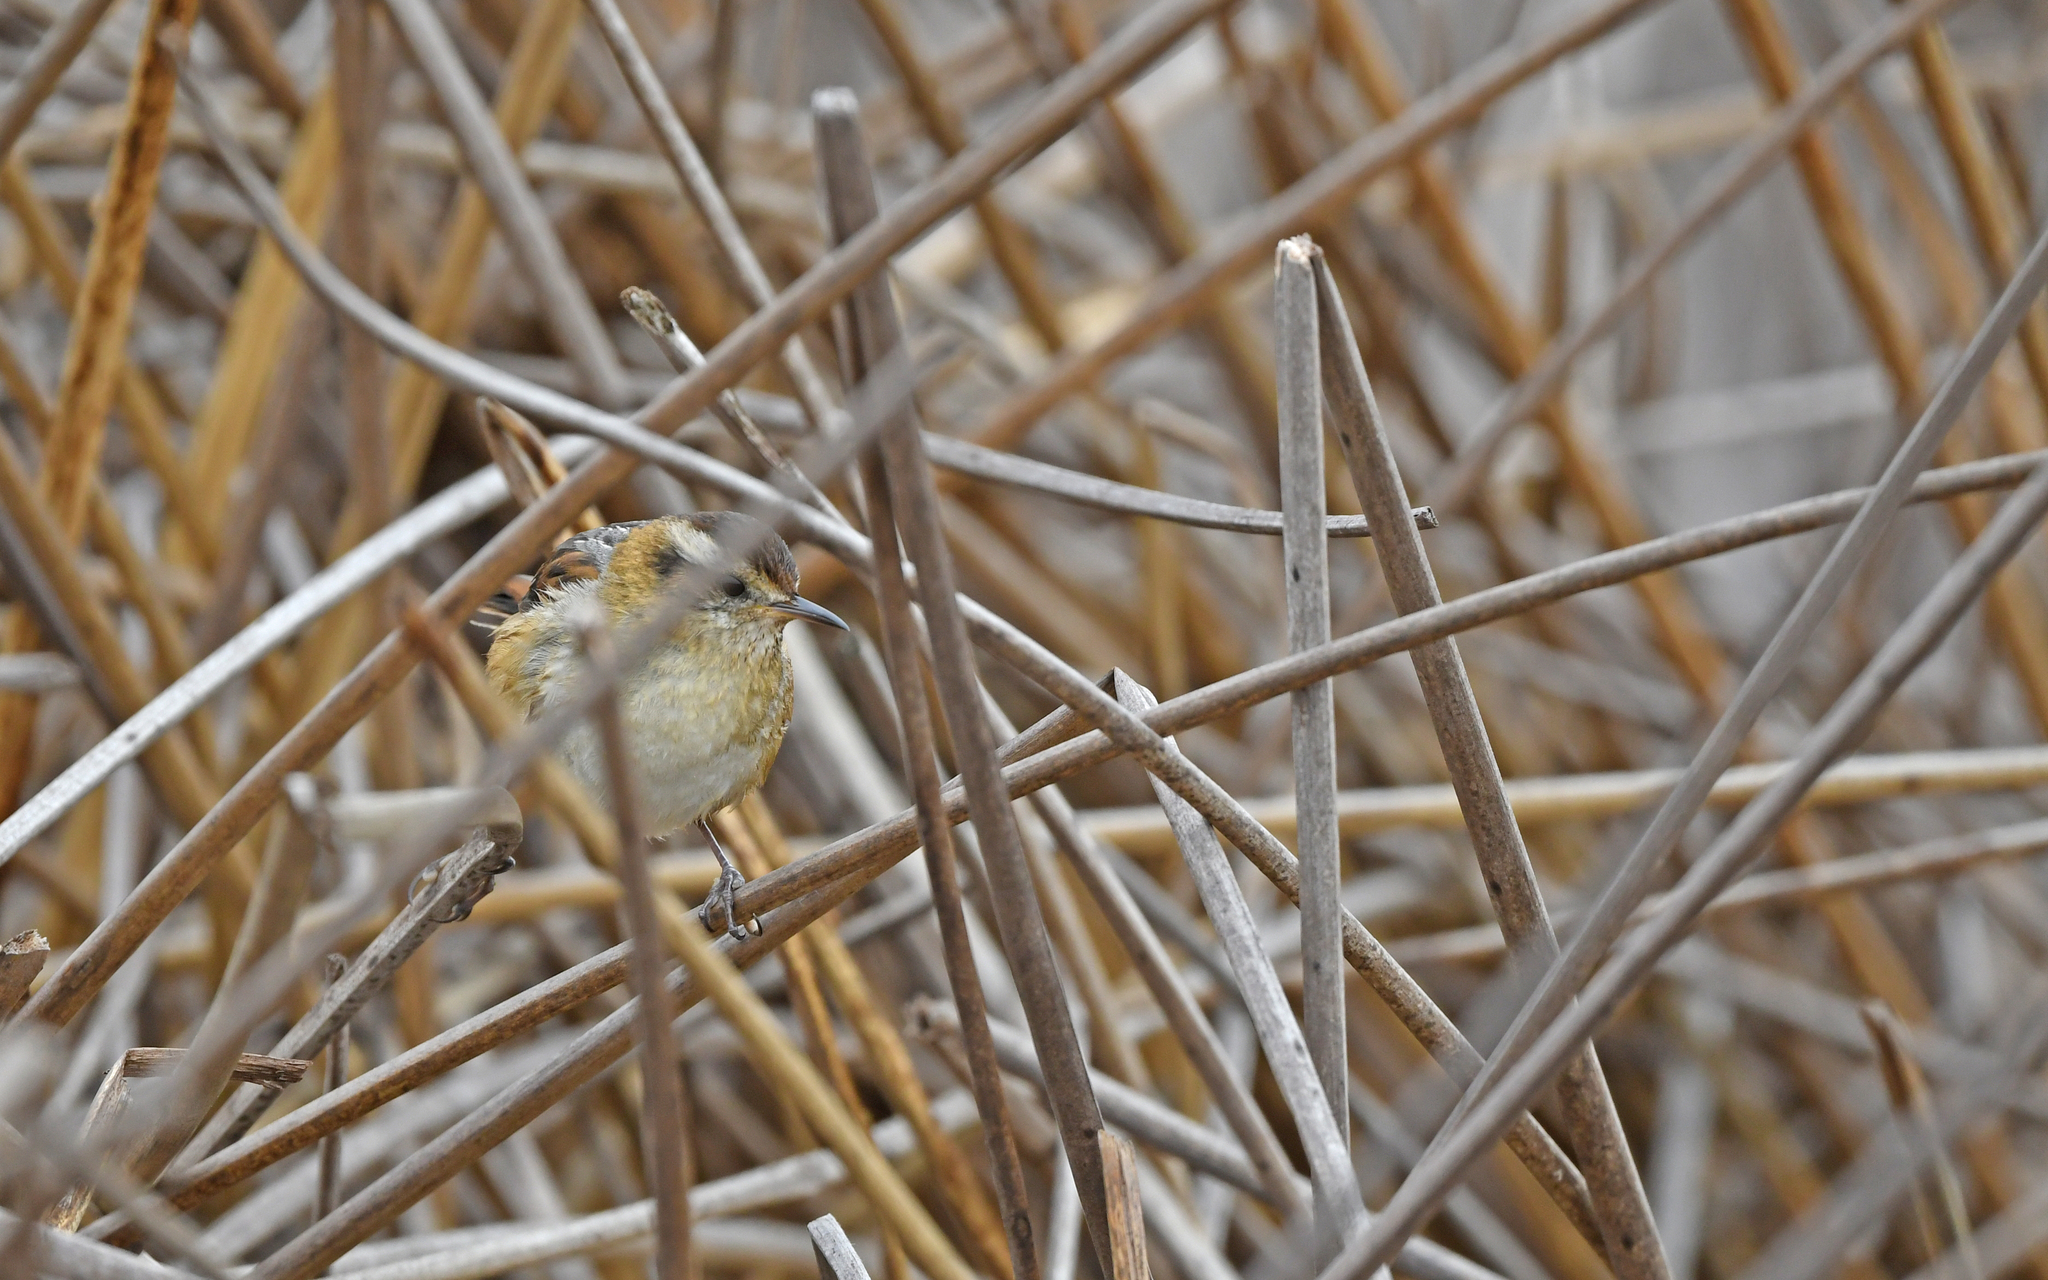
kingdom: Animalia
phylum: Chordata
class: Aves
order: Passeriformes
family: Furnariidae
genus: Phleocryptes
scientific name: Phleocryptes melanops
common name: Wren-like rushbird
